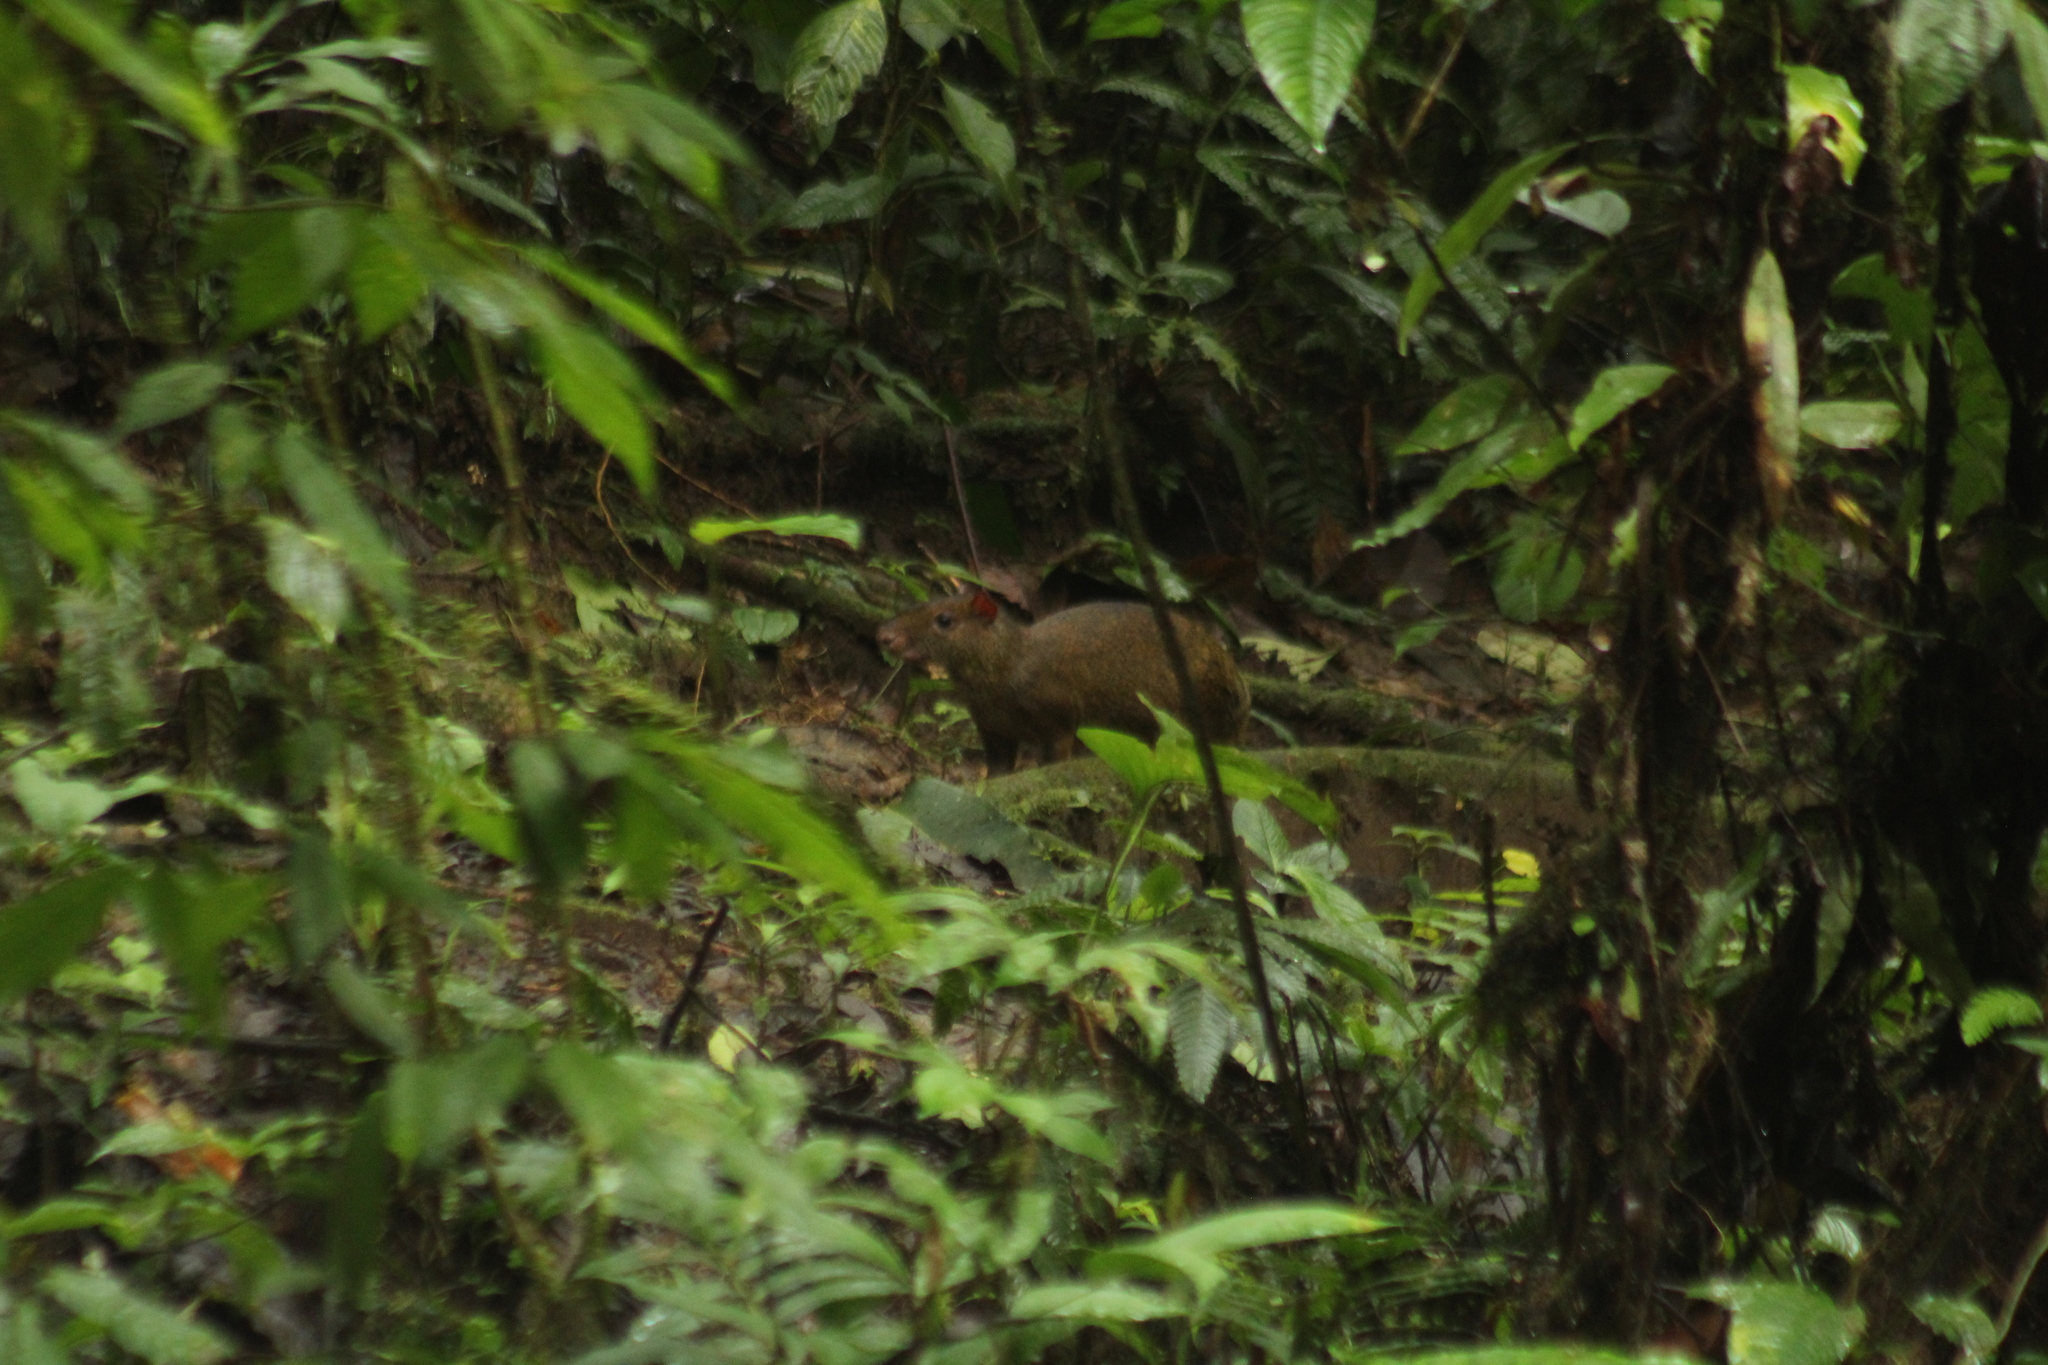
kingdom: Animalia
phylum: Chordata
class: Mammalia
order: Rodentia
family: Dasyproctidae
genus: Dasyprocta
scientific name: Dasyprocta punctata
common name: Central american agouti
